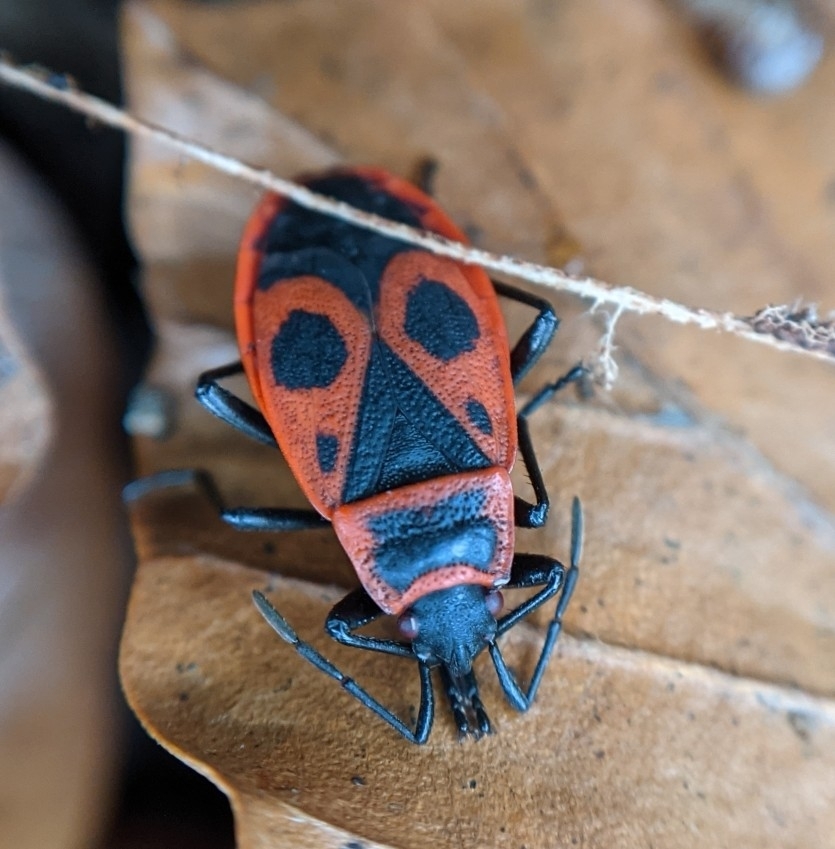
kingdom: Animalia
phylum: Arthropoda
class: Insecta
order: Hemiptera
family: Pyrrhocoridae
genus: Pyrrhocoris
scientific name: Pyrrhocoris apterus
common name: Firebug
